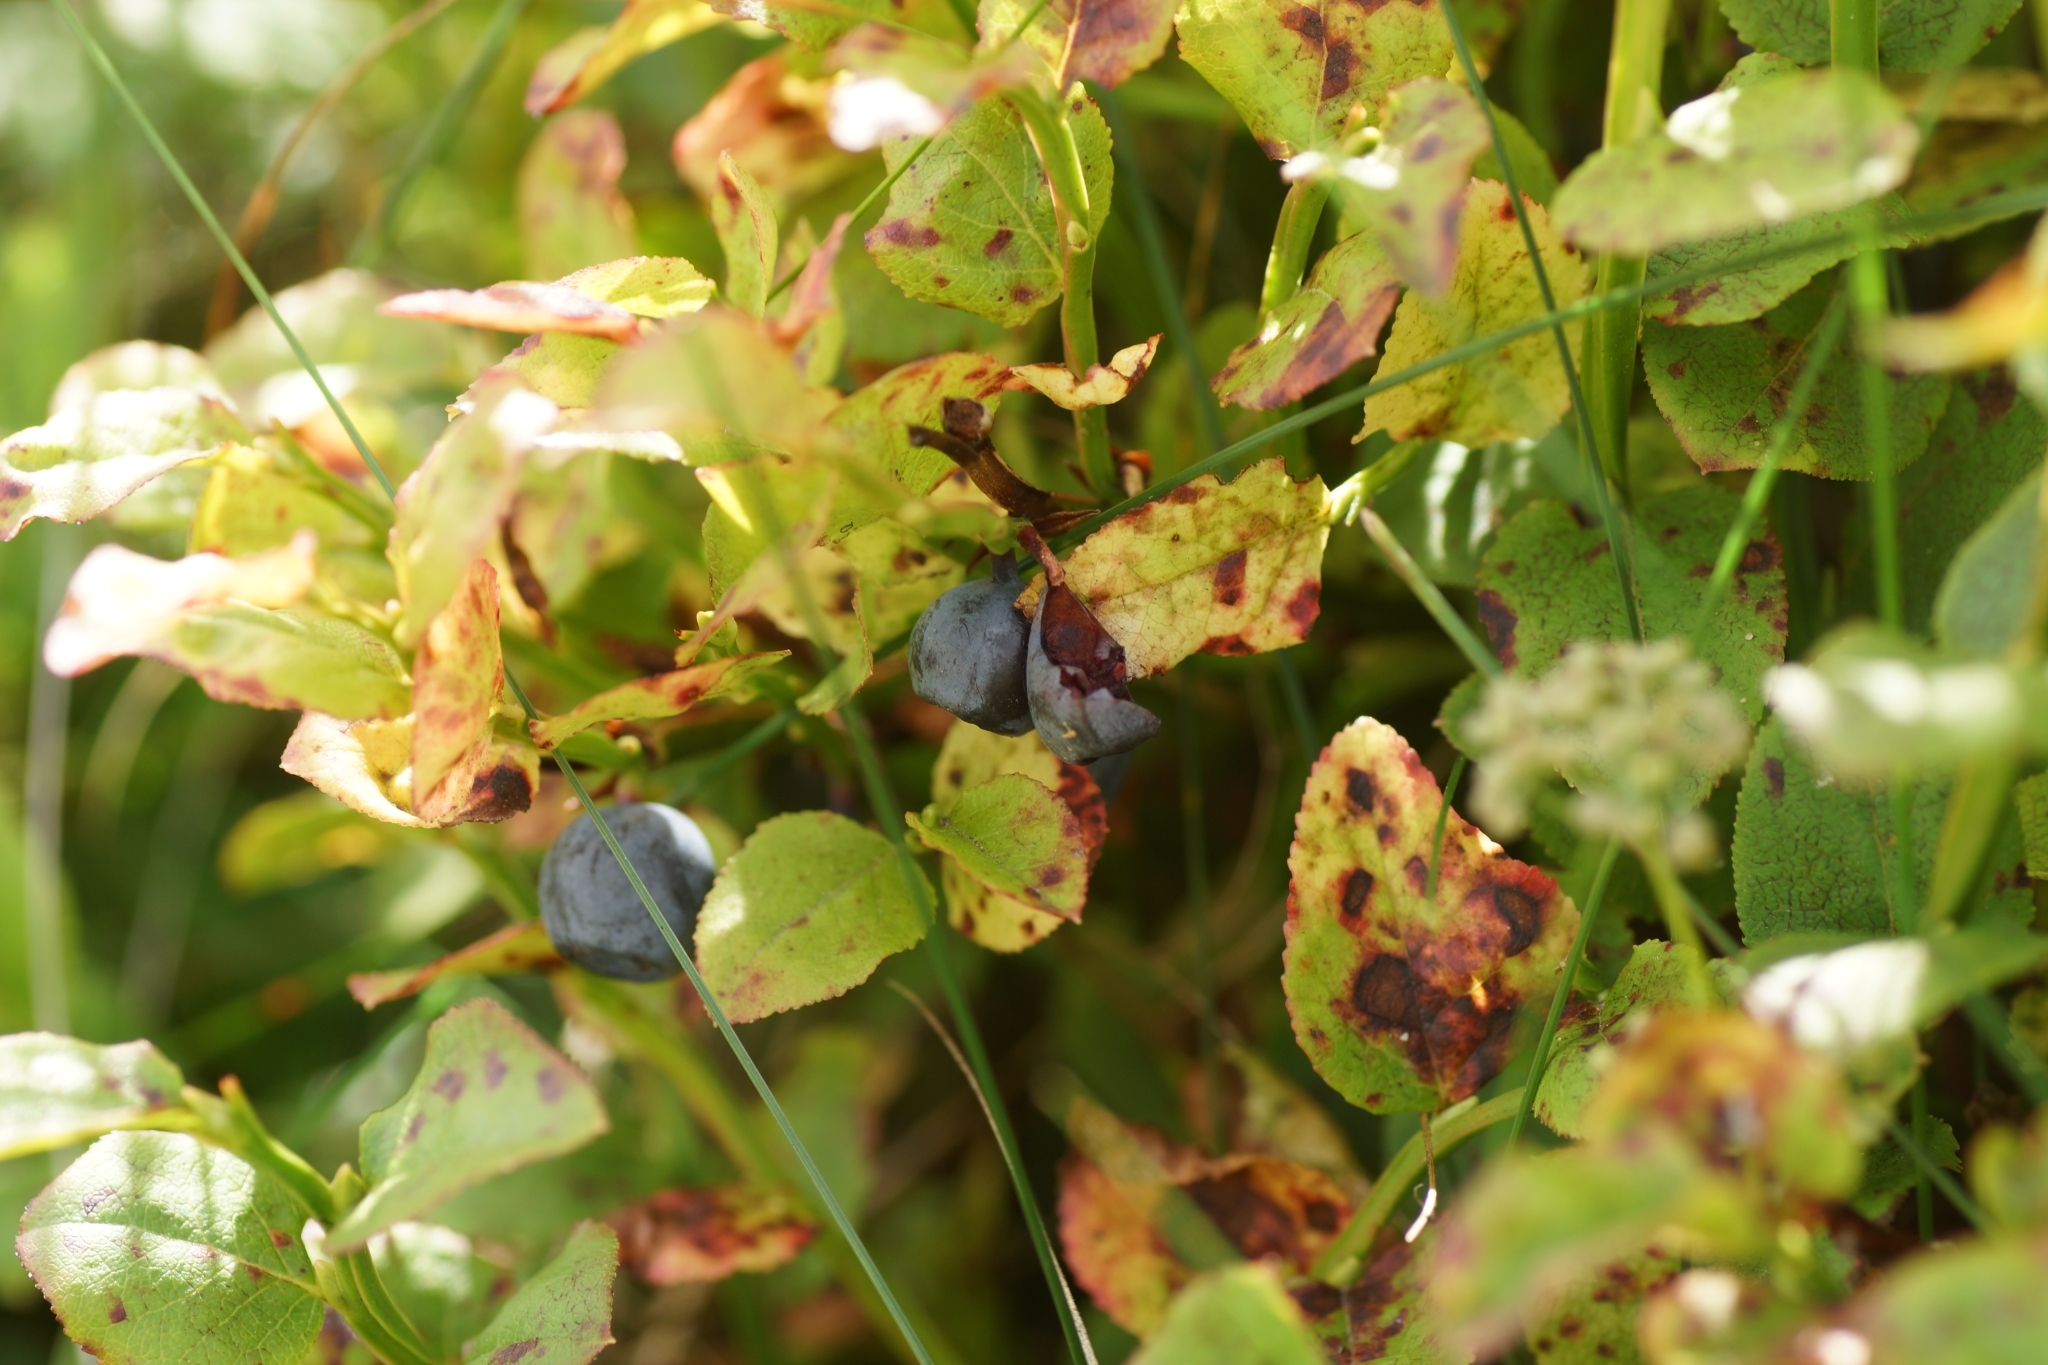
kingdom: Plantae
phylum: Tracheophyta
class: Magnoliopsida
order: Ericales
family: Ericaceae
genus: Vaccinium
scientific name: Vaccinium myrtillus
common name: Bilberry
